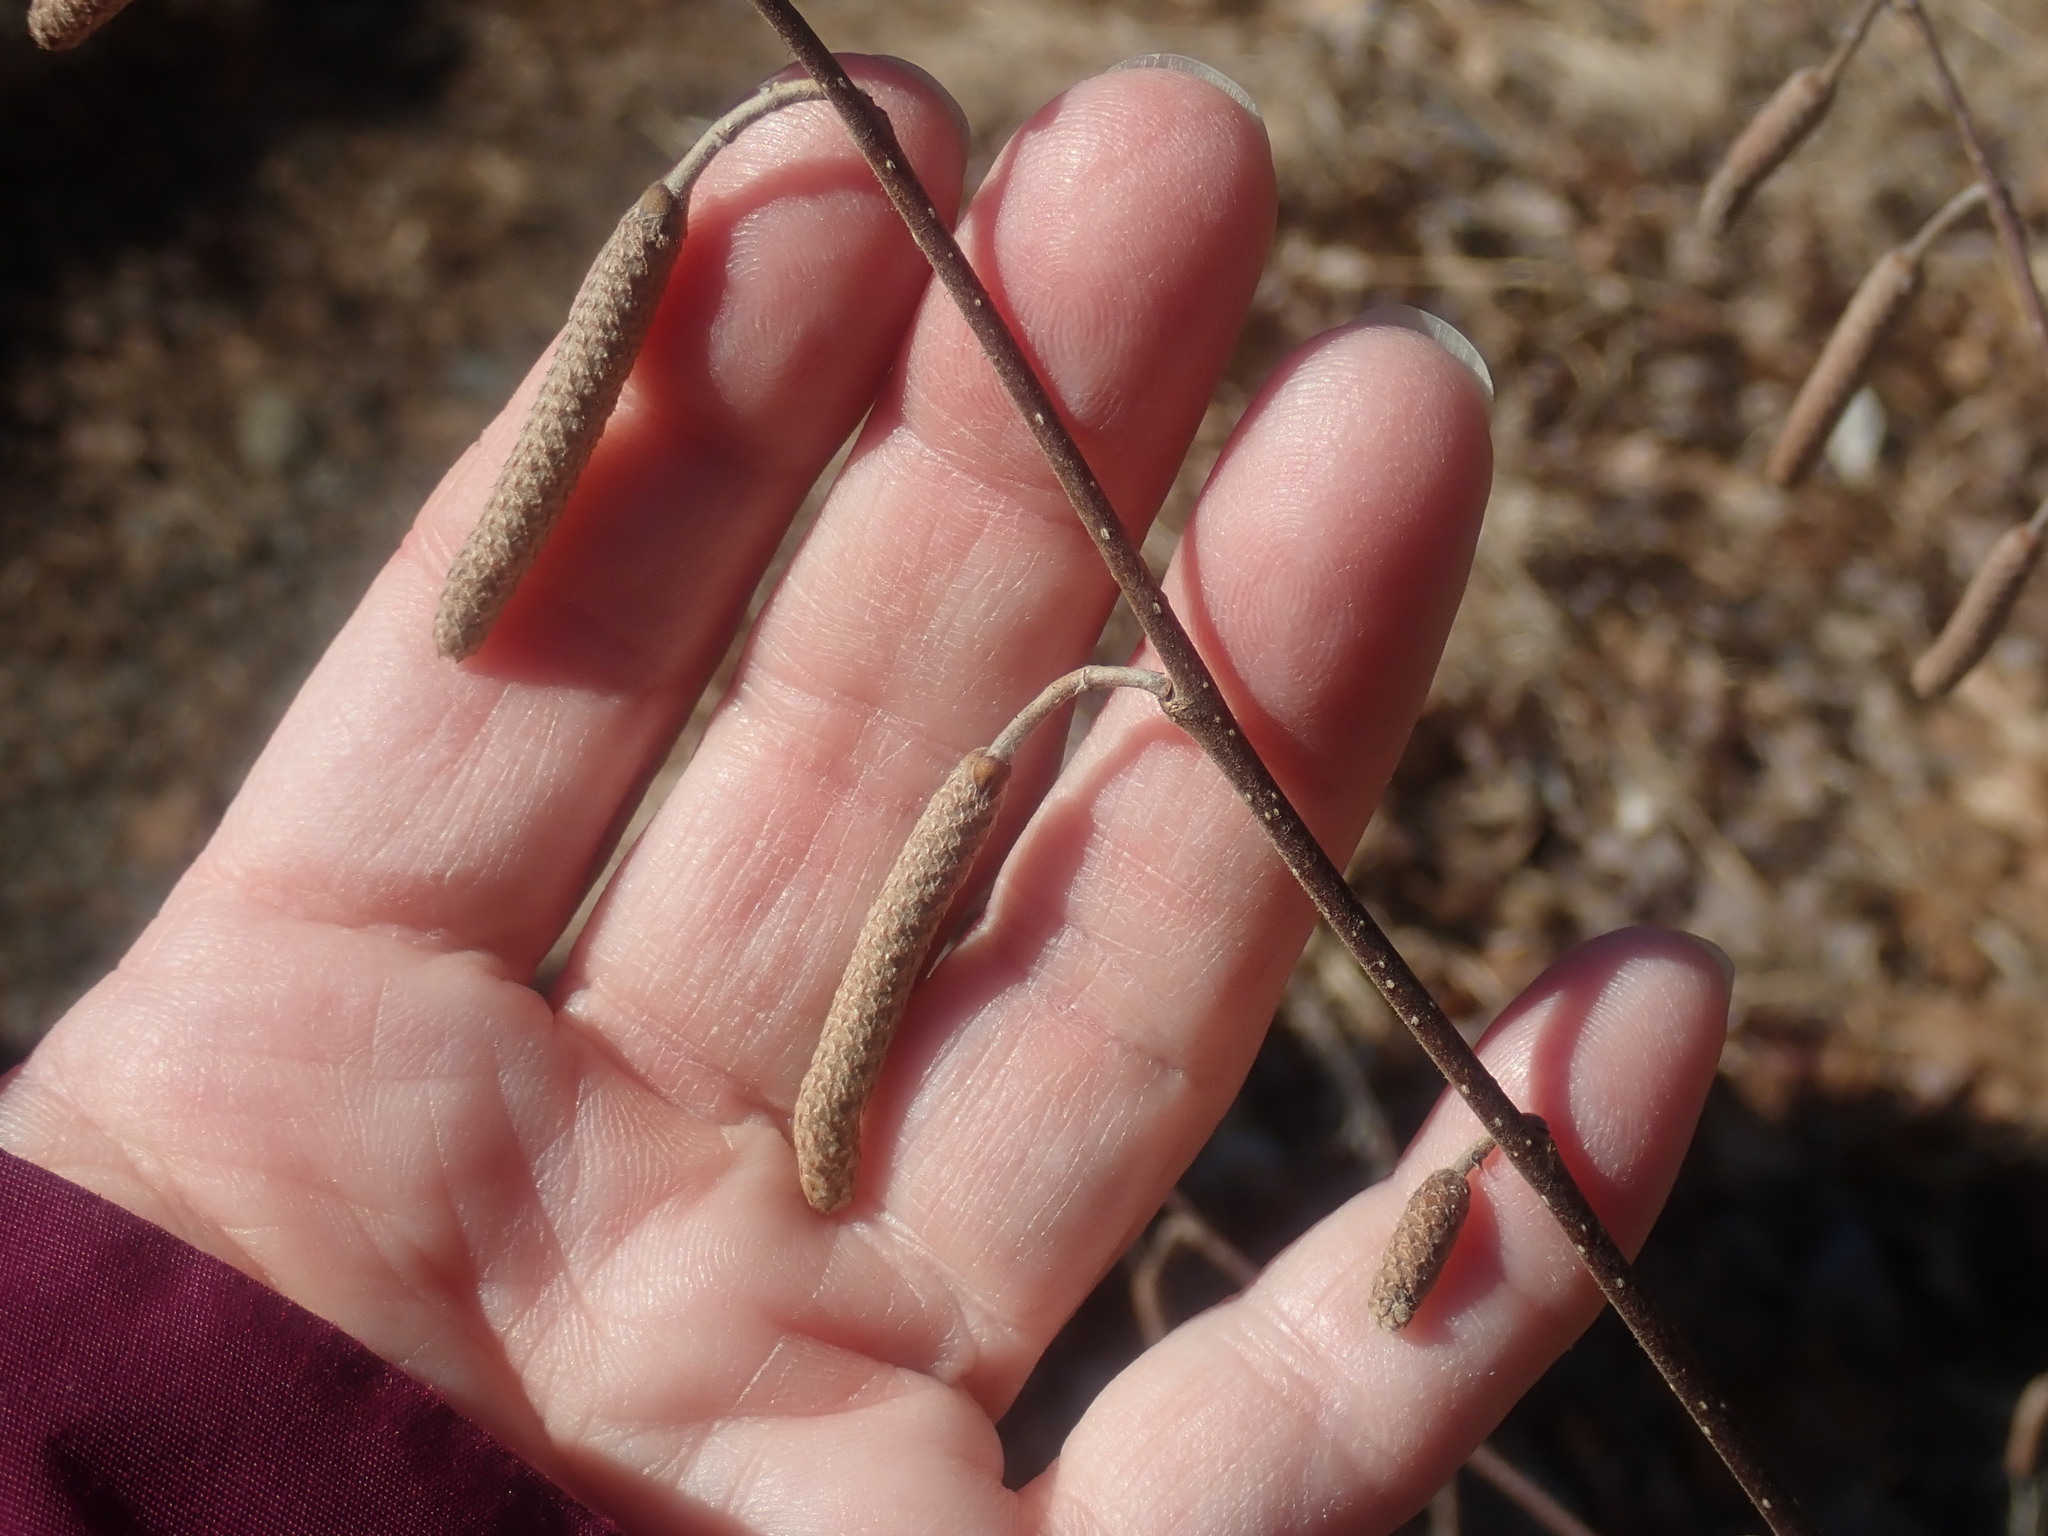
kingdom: Plantae
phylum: Tracheophyta
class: Magnoliopsida
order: Fagales
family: Betulaceae
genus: Corylus
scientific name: Corylus americana
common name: American hazel
